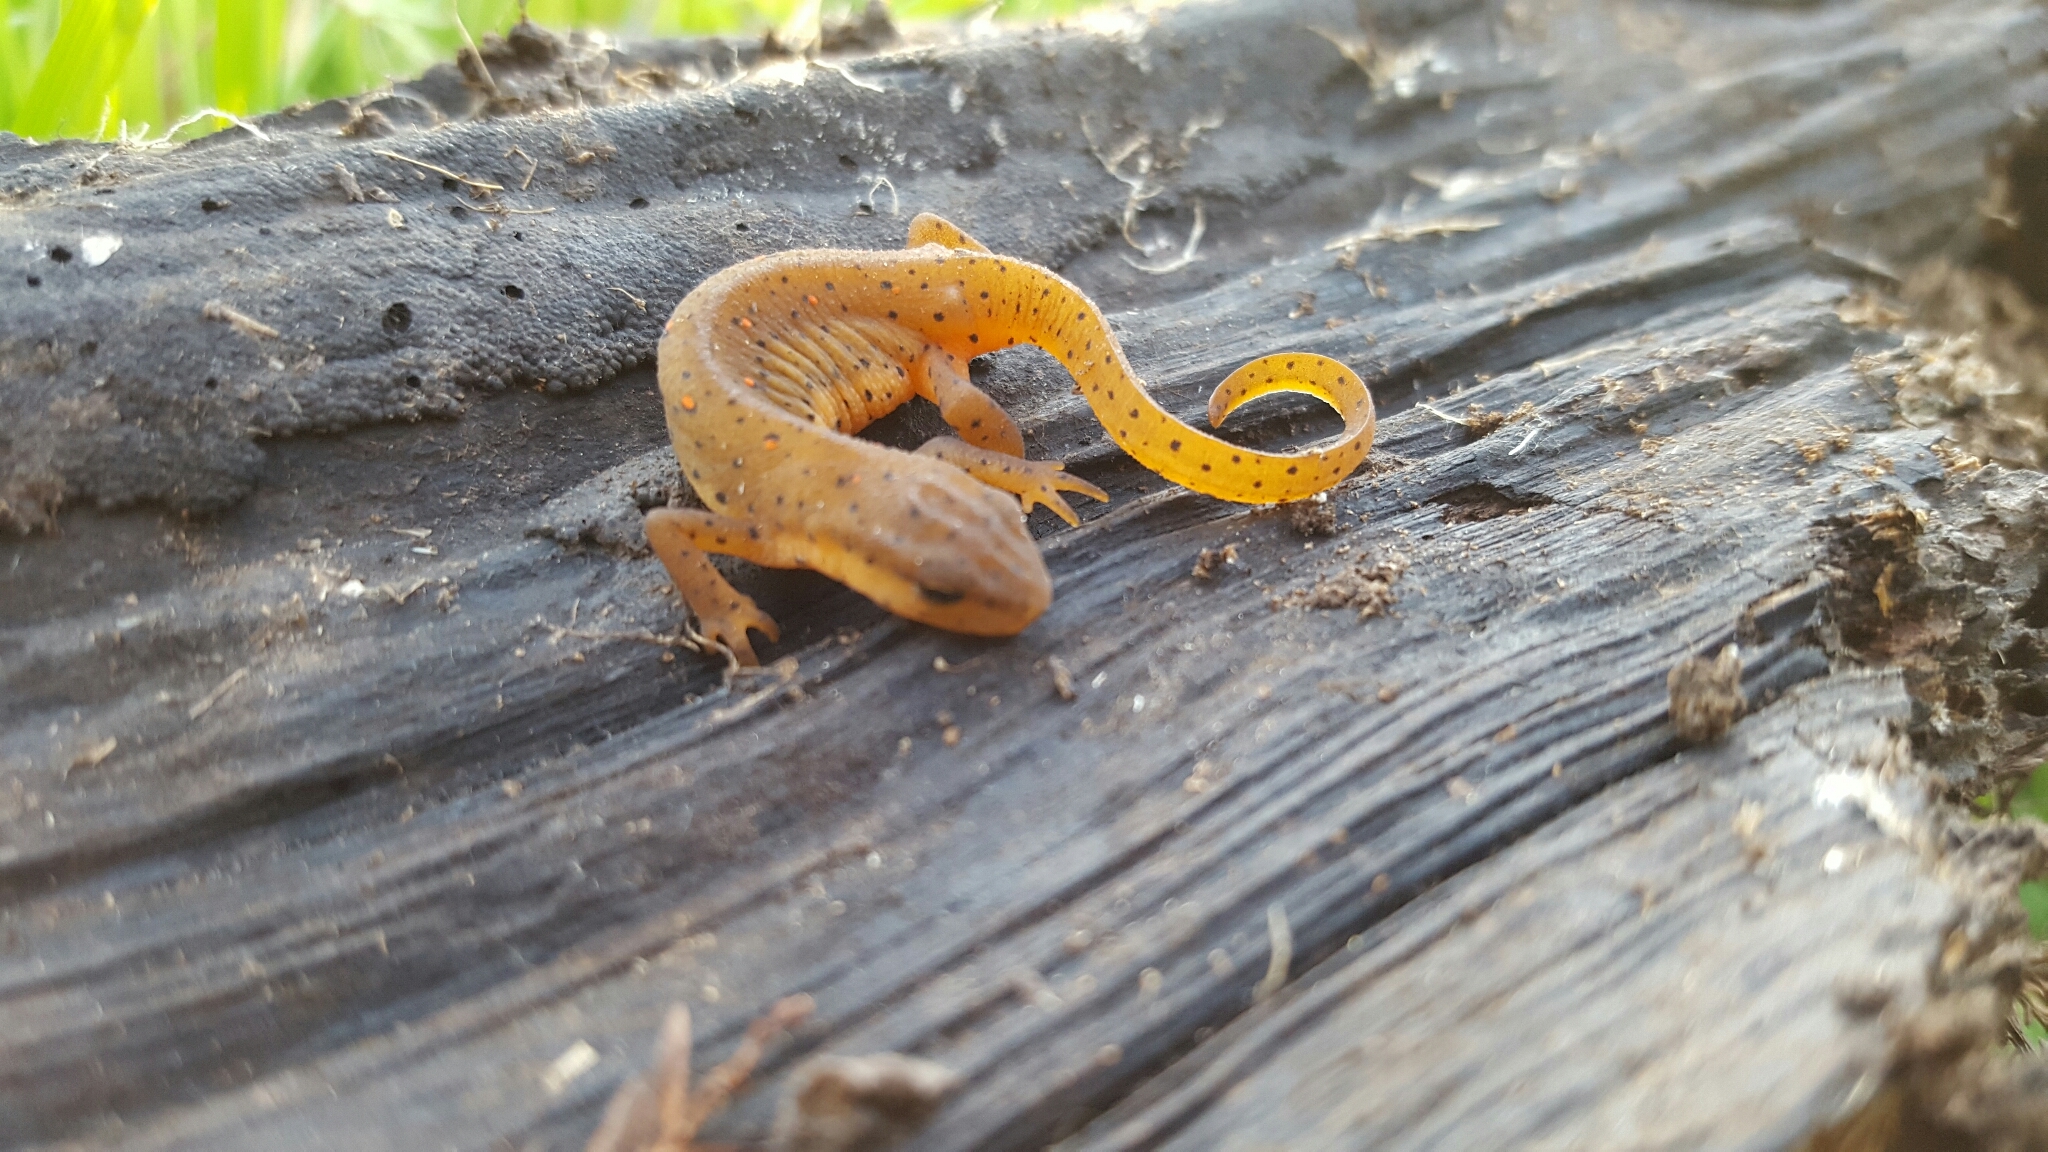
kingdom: Animalia
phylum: Chordata
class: Amphibia
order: Caudata
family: Salamandridae
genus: Notophthalmus
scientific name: Notophthalmus viridescens
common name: Eastern newt
